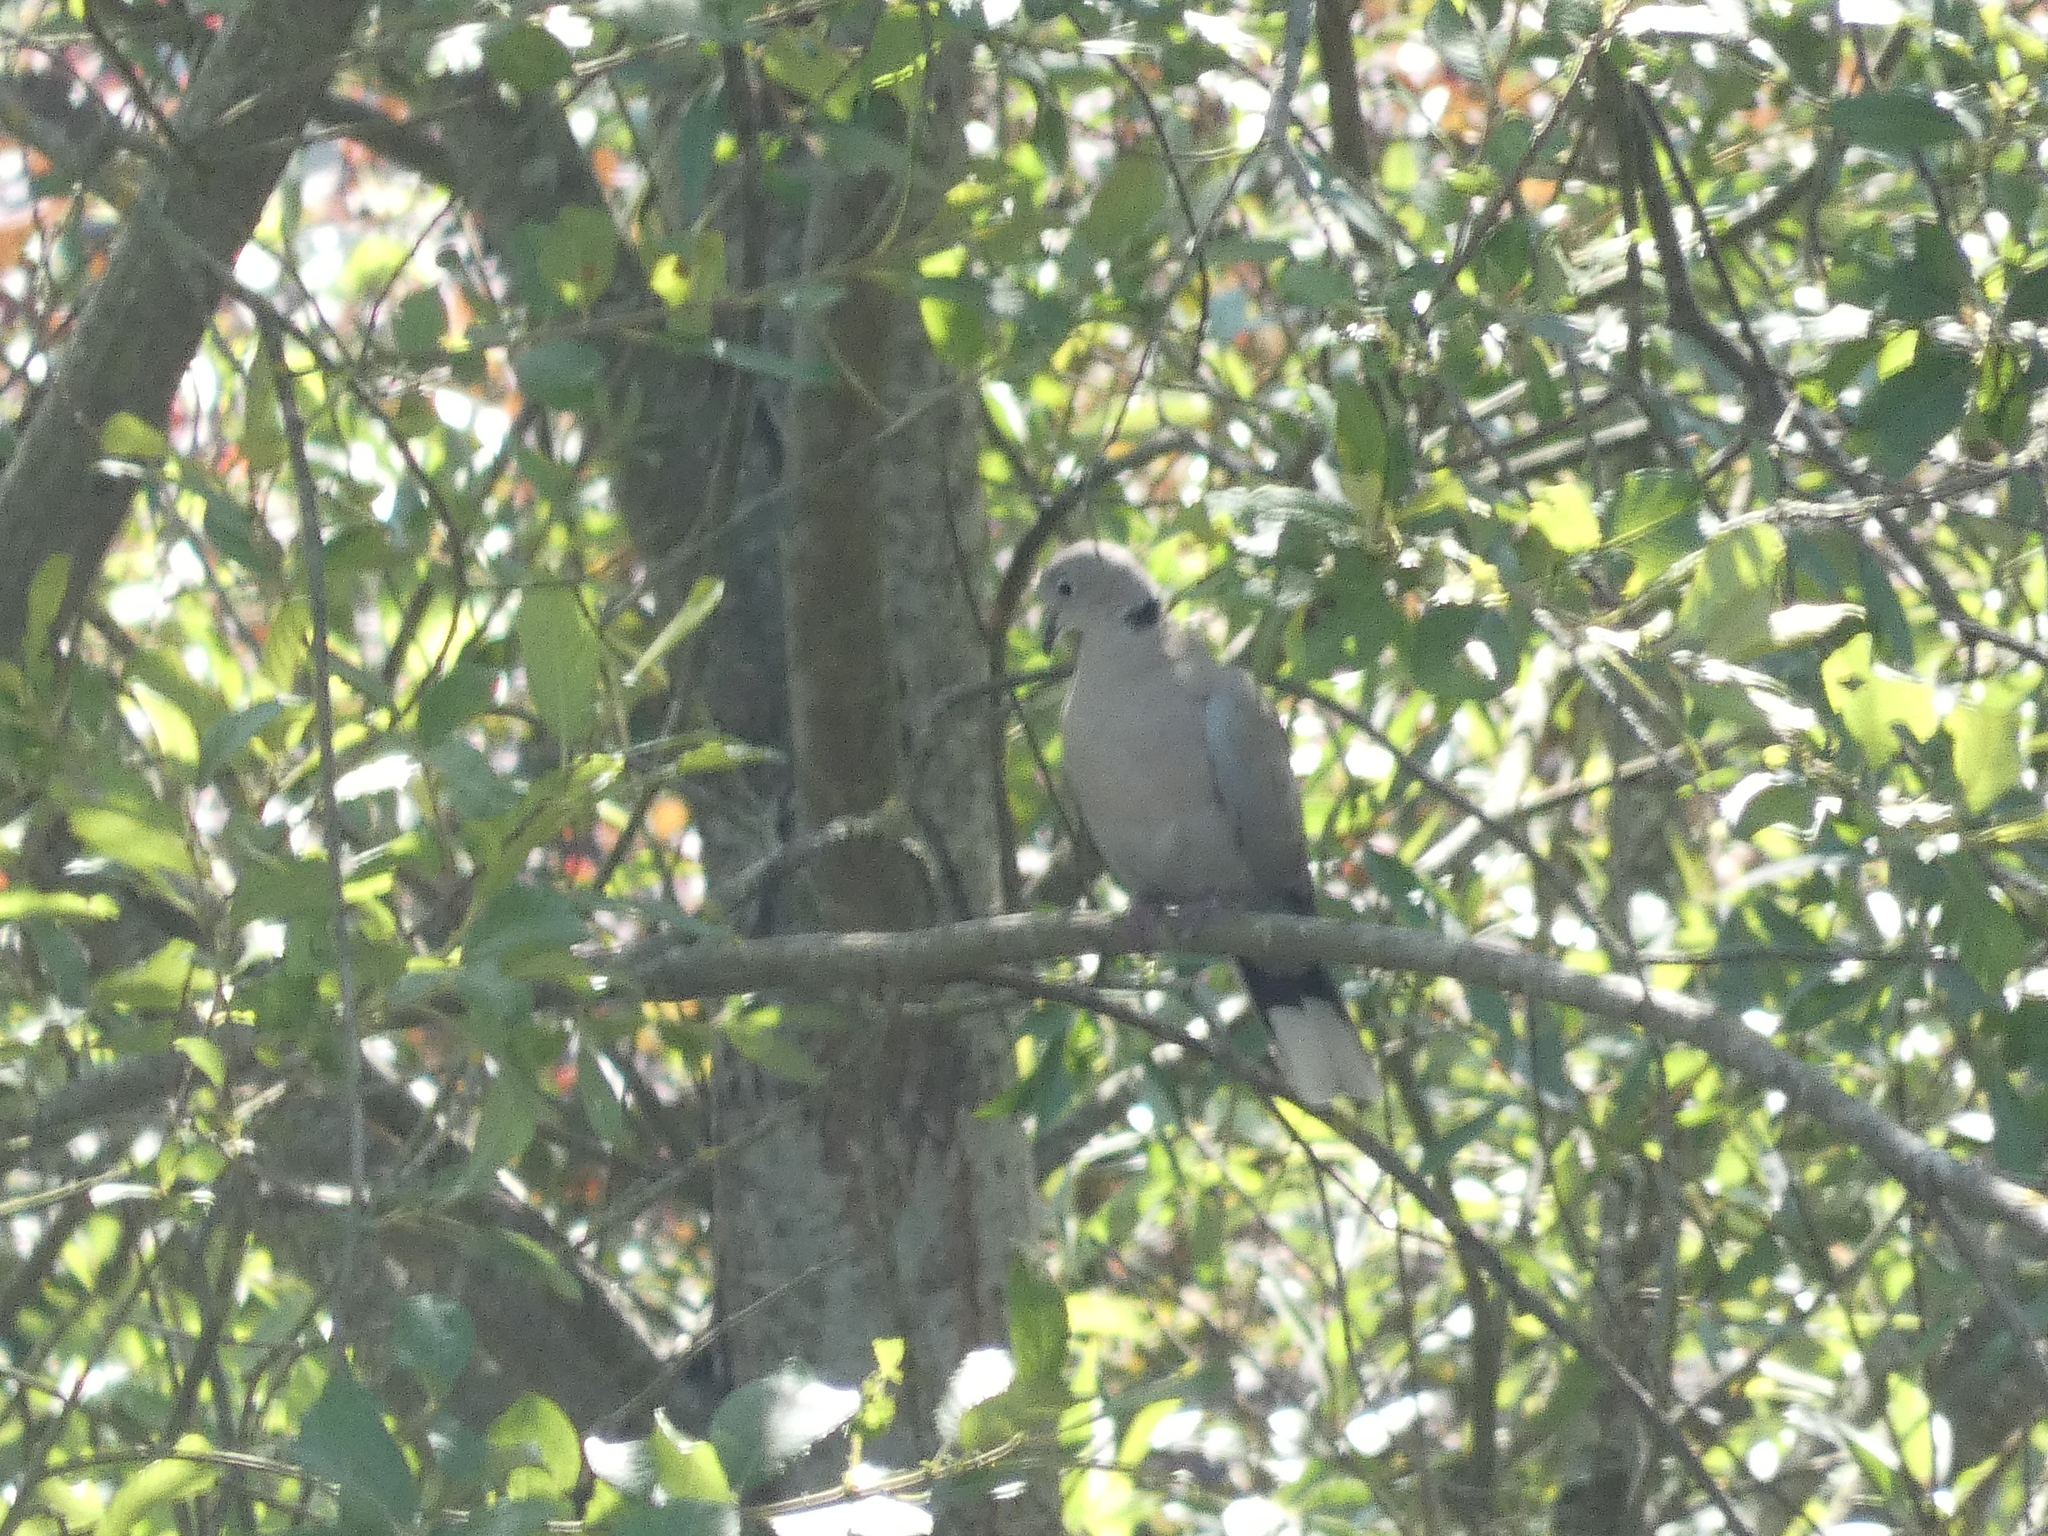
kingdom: Animalia
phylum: Chordata
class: Aves
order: Columbiformes
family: Columbidae
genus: Streptopelia
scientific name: Streptopelia decaocto
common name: Eurasian collared dove
